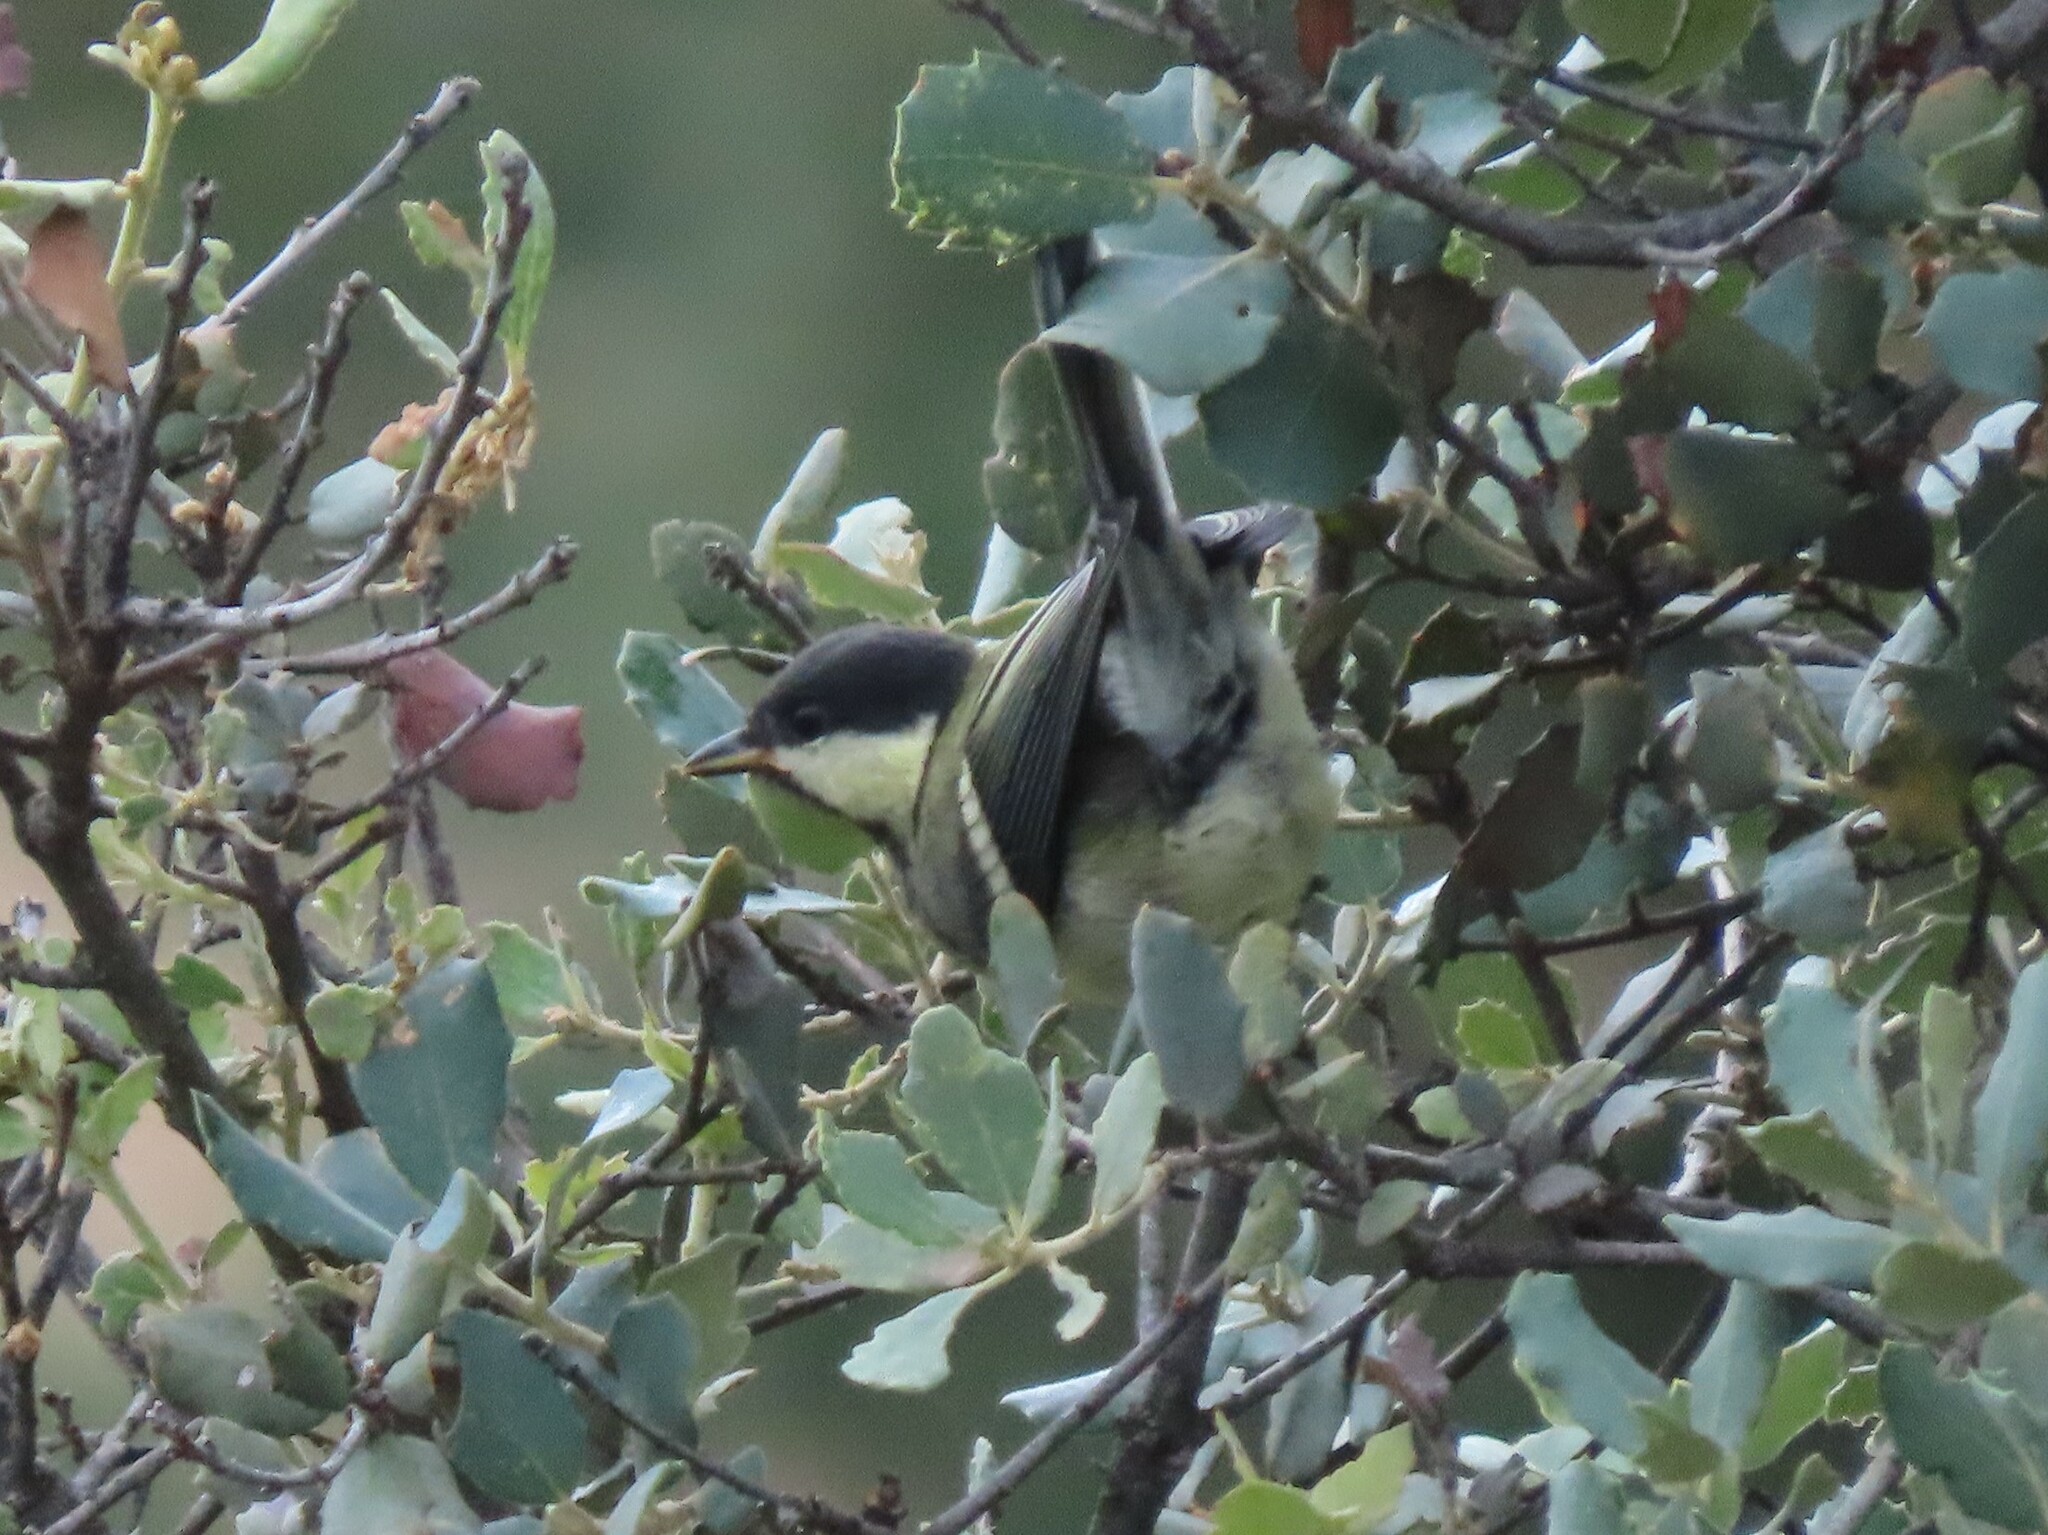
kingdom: Animalia
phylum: Chordata
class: Aves
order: Passeriformes
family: Paridae
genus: Parus
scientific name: Parus major
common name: Great tit
